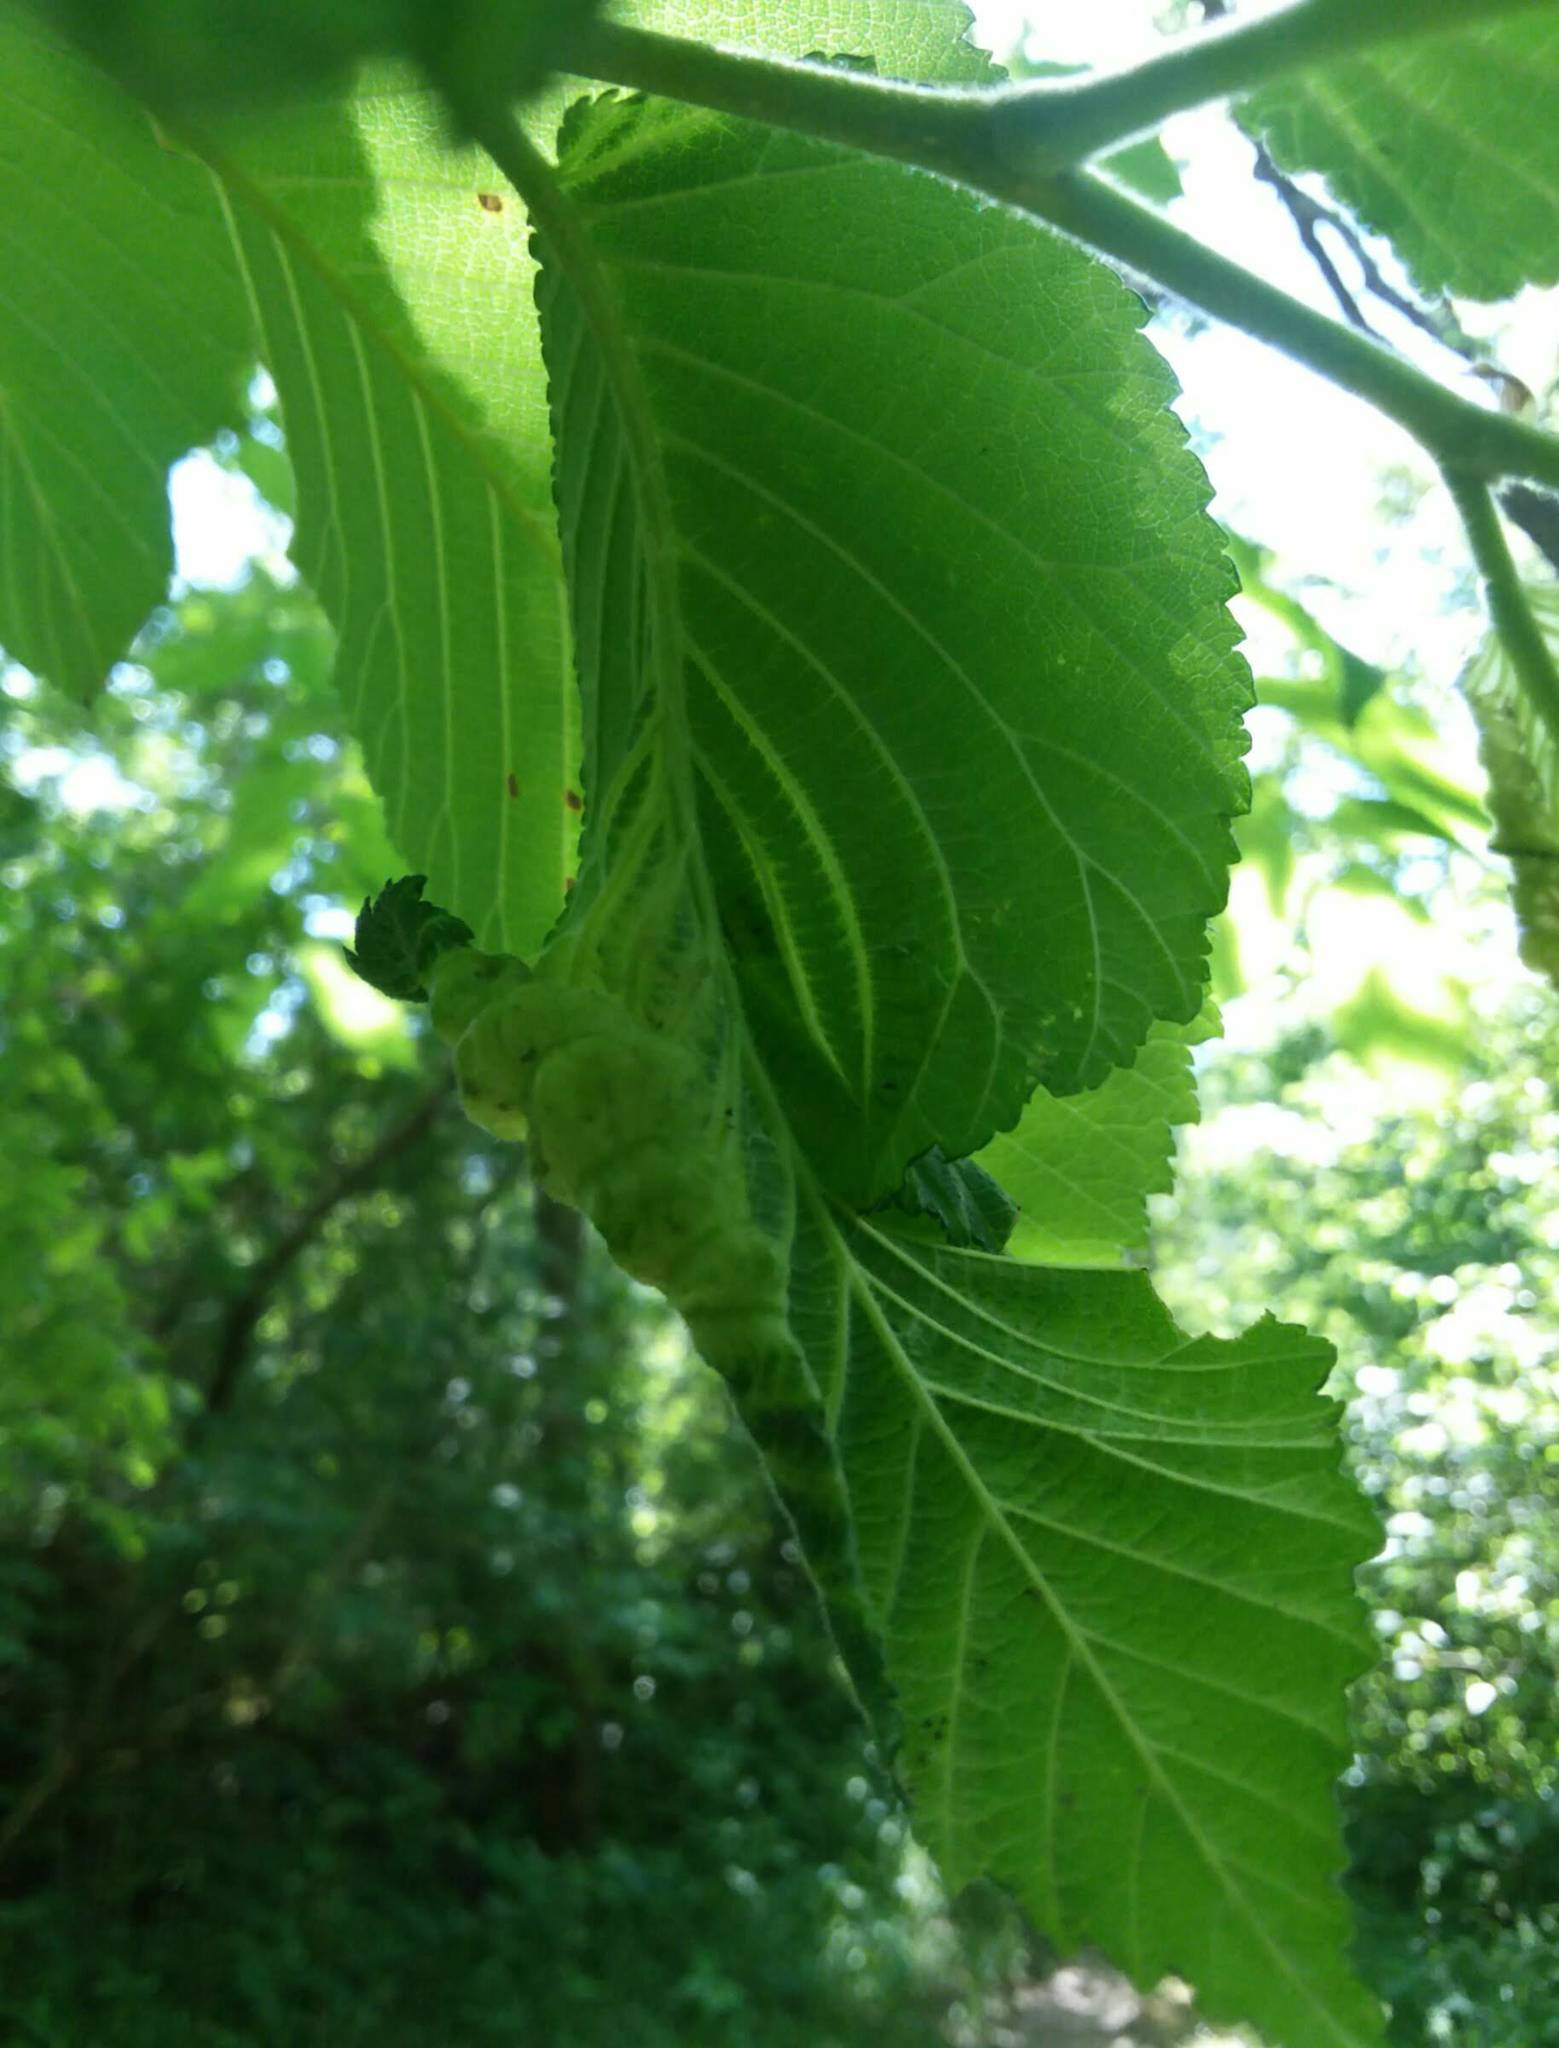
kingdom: Animalia
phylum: Arthropoda
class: Insecta
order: Hemiptera
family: Aphididae
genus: Eriosoma
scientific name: Eriosoma americanum
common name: Woolly elm aphid
